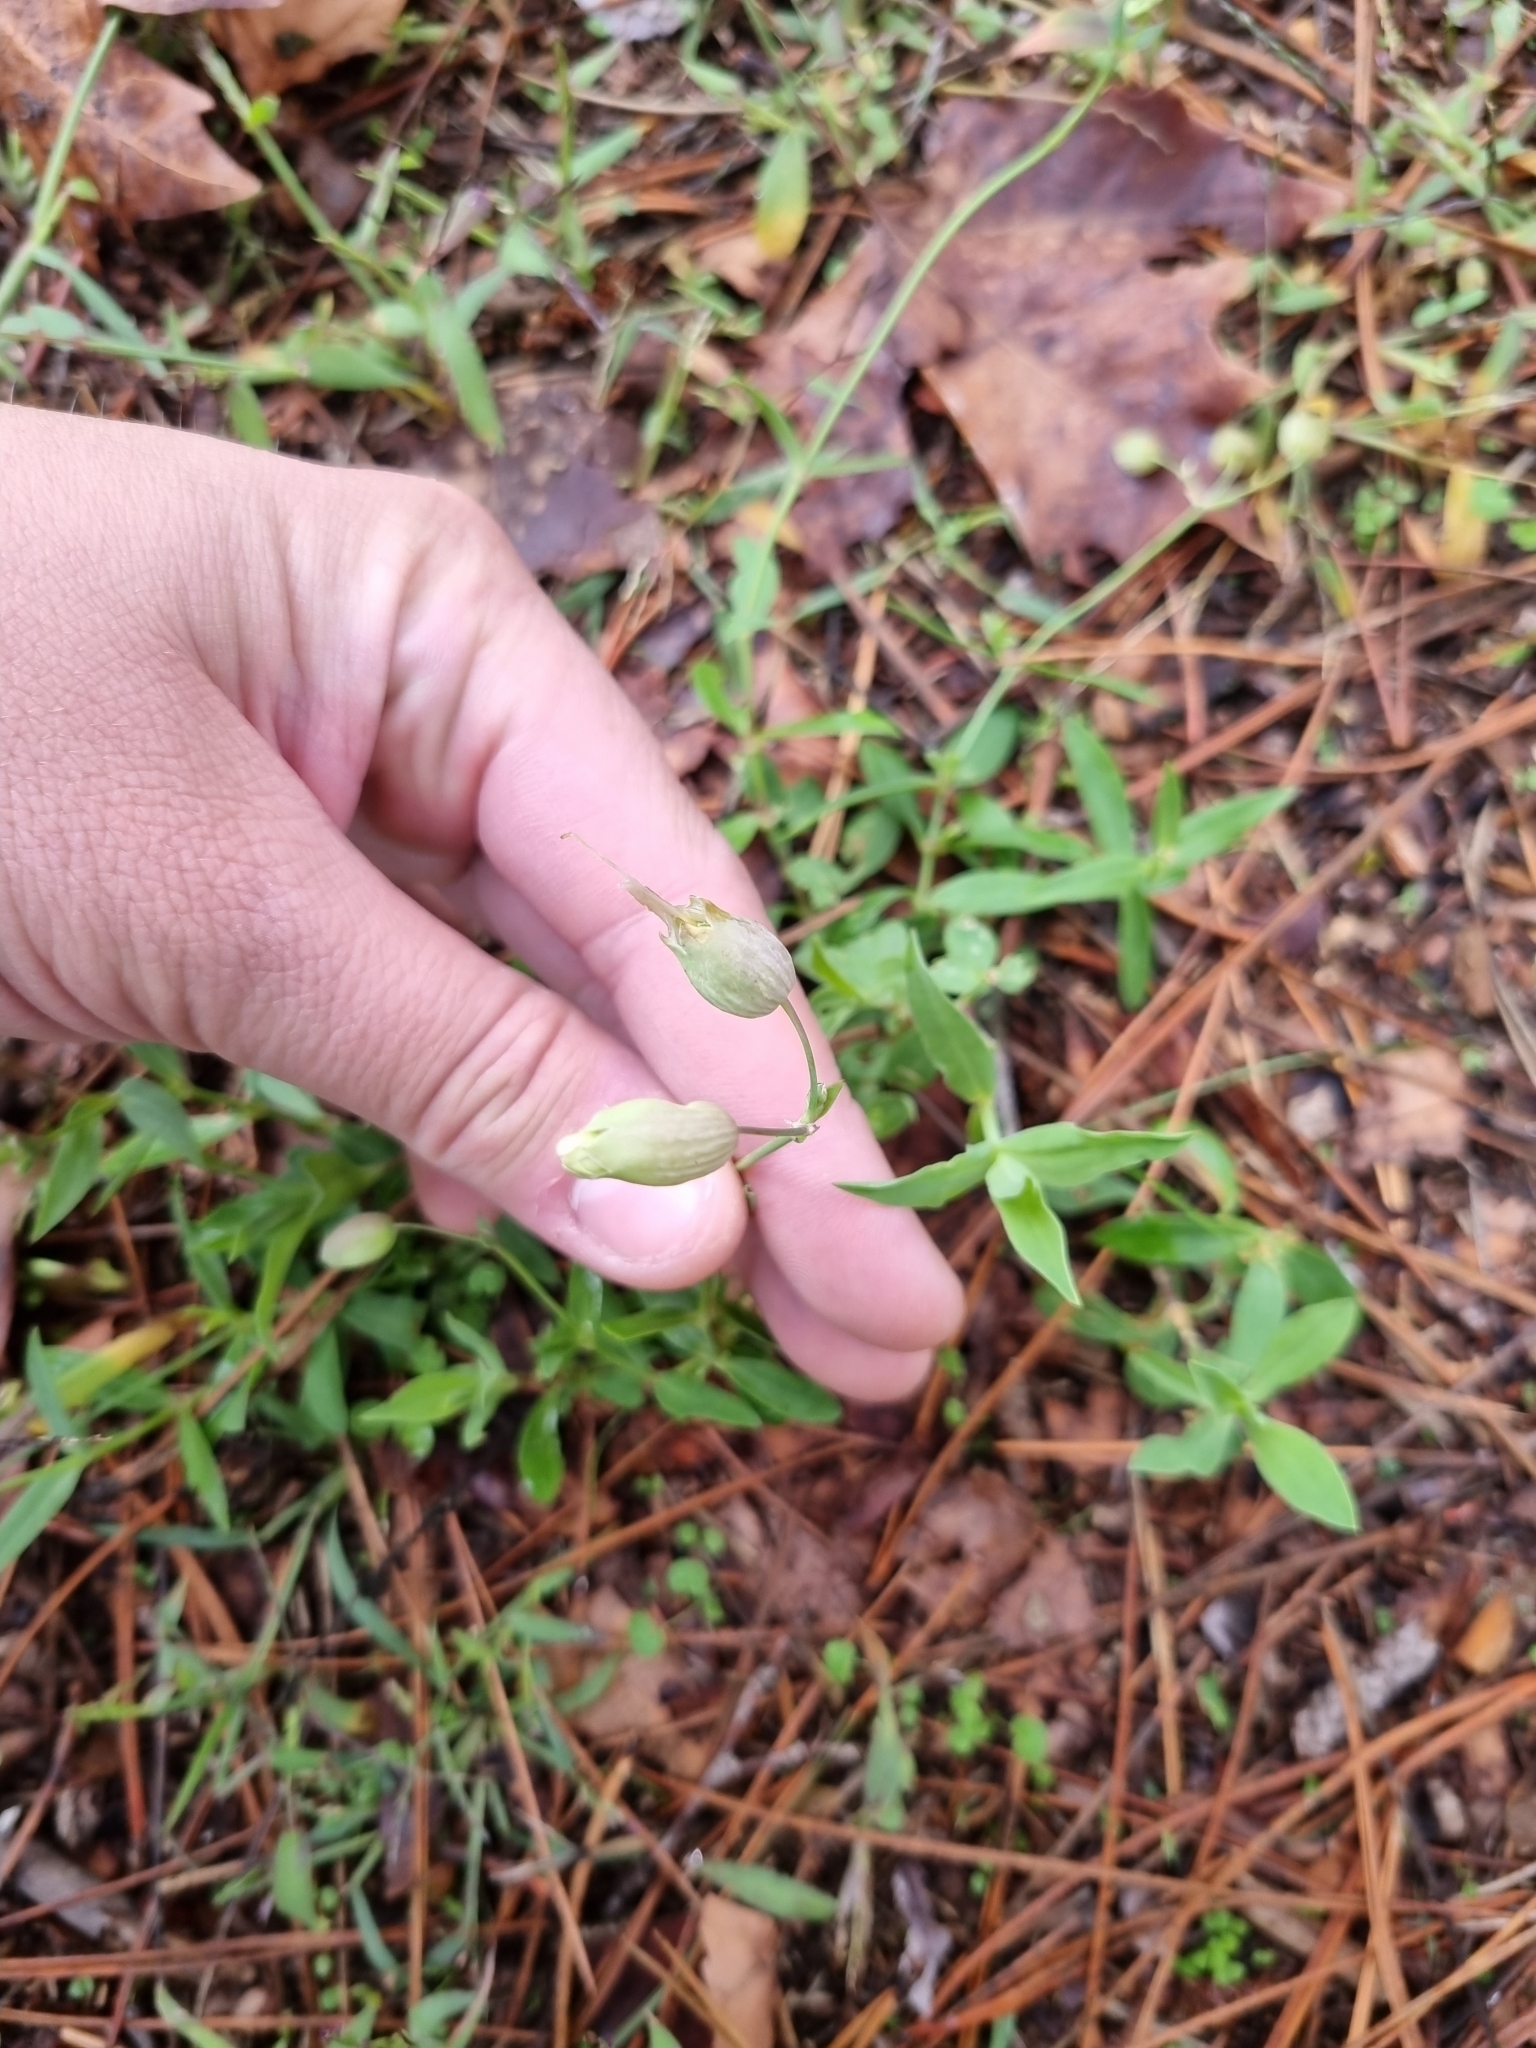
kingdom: Plantae
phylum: Tracheophyta
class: Magnoliopsida
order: Caryophyllales
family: Caryophyllaceae
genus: Silene
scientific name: Silene vulgaris
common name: Bladder campion
